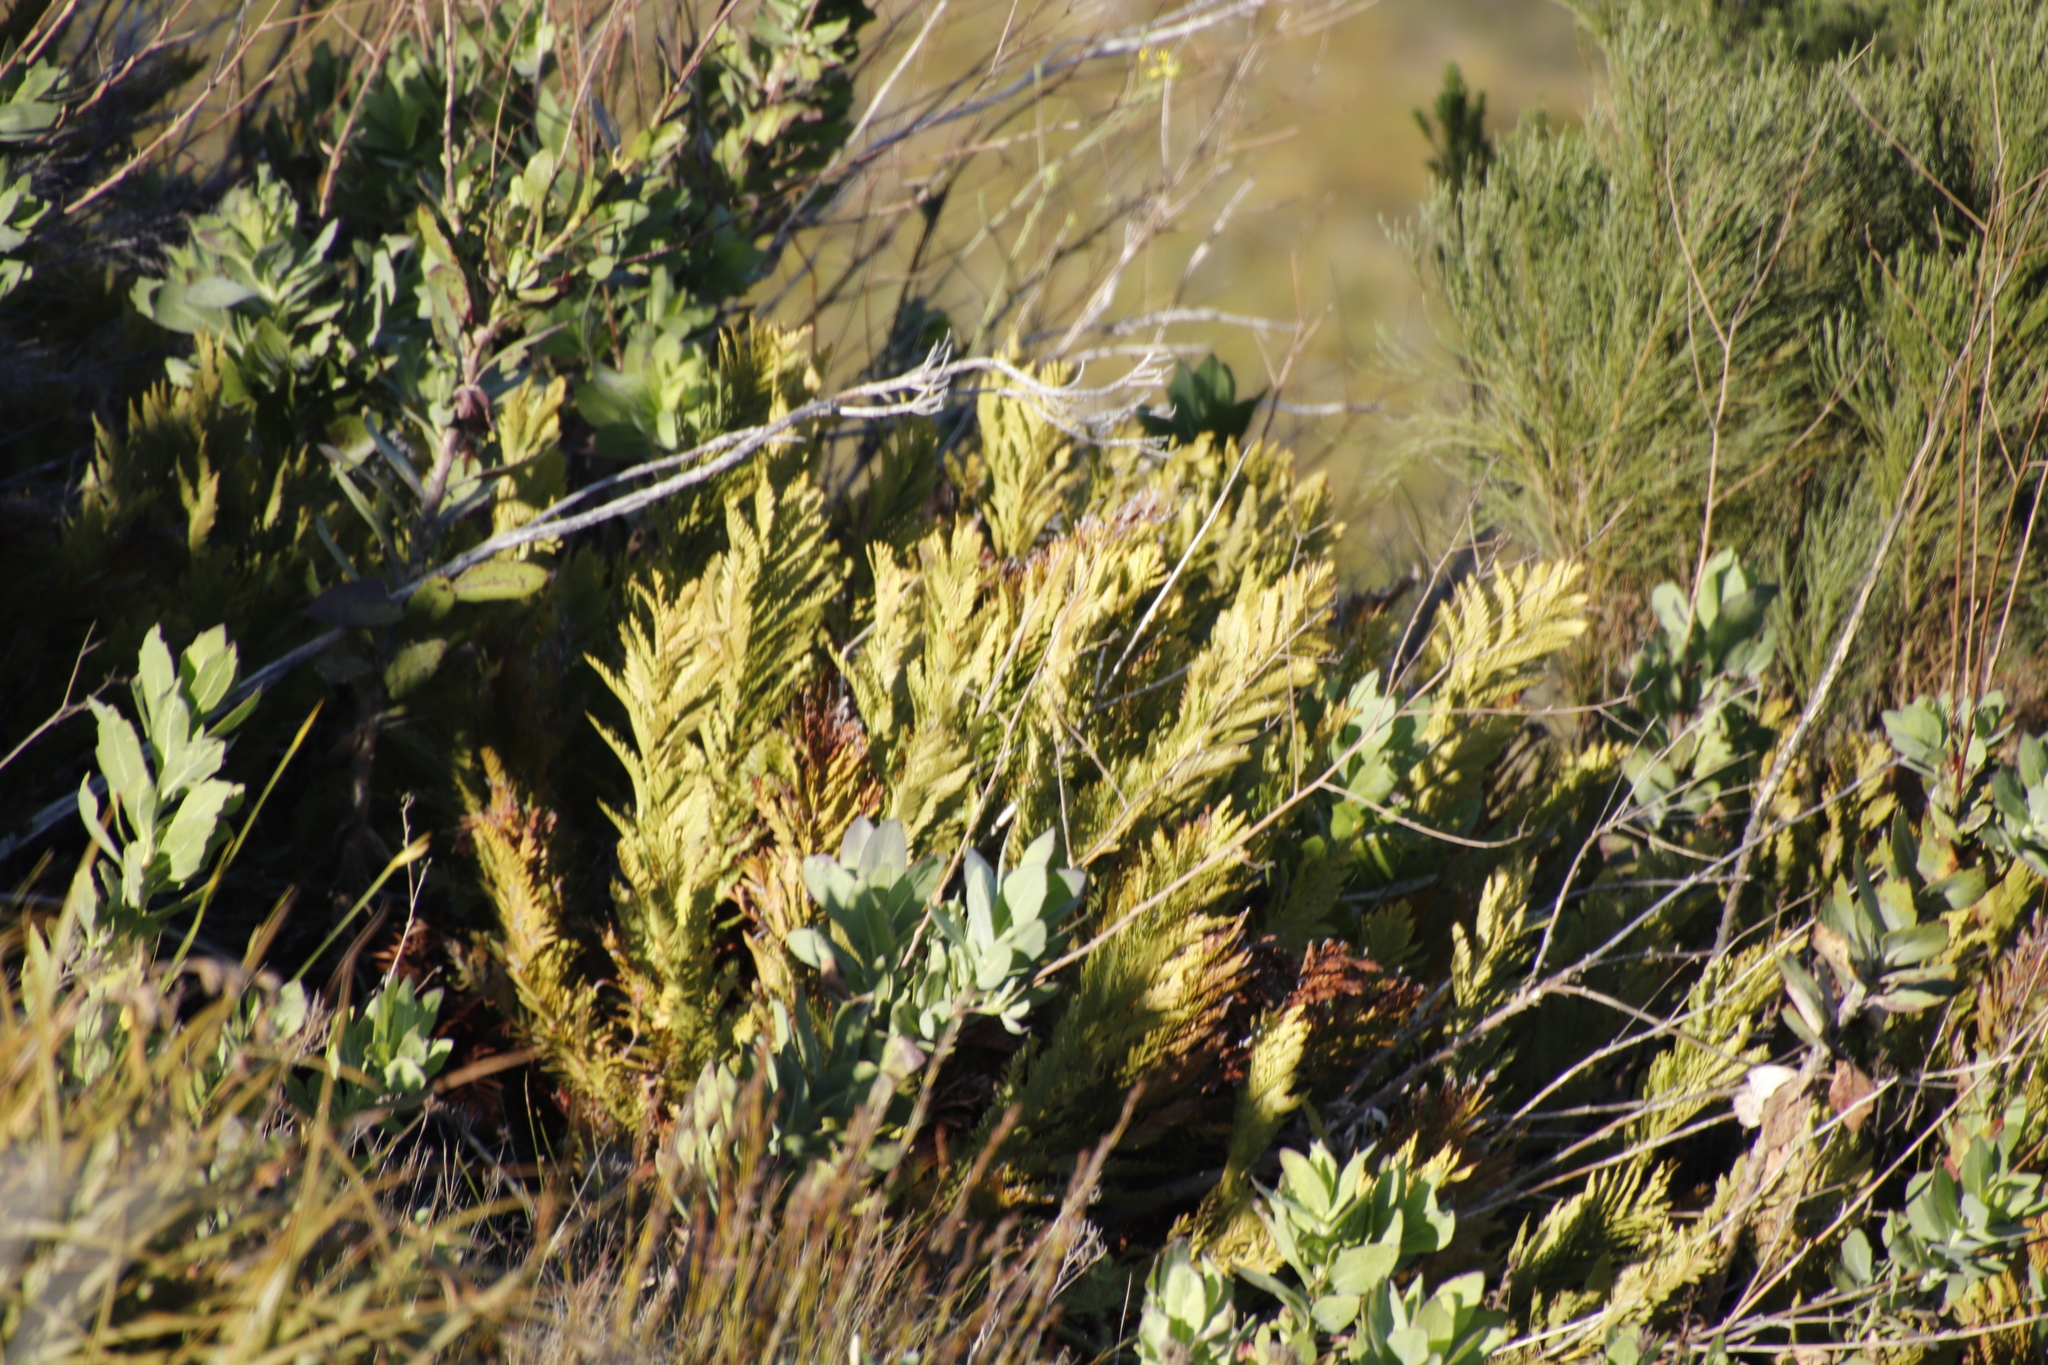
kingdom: Plantae
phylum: Tracheophyta
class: Polypodiopsida
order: Osmundales
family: Osmundaceae
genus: Todea
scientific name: Todea barbara
